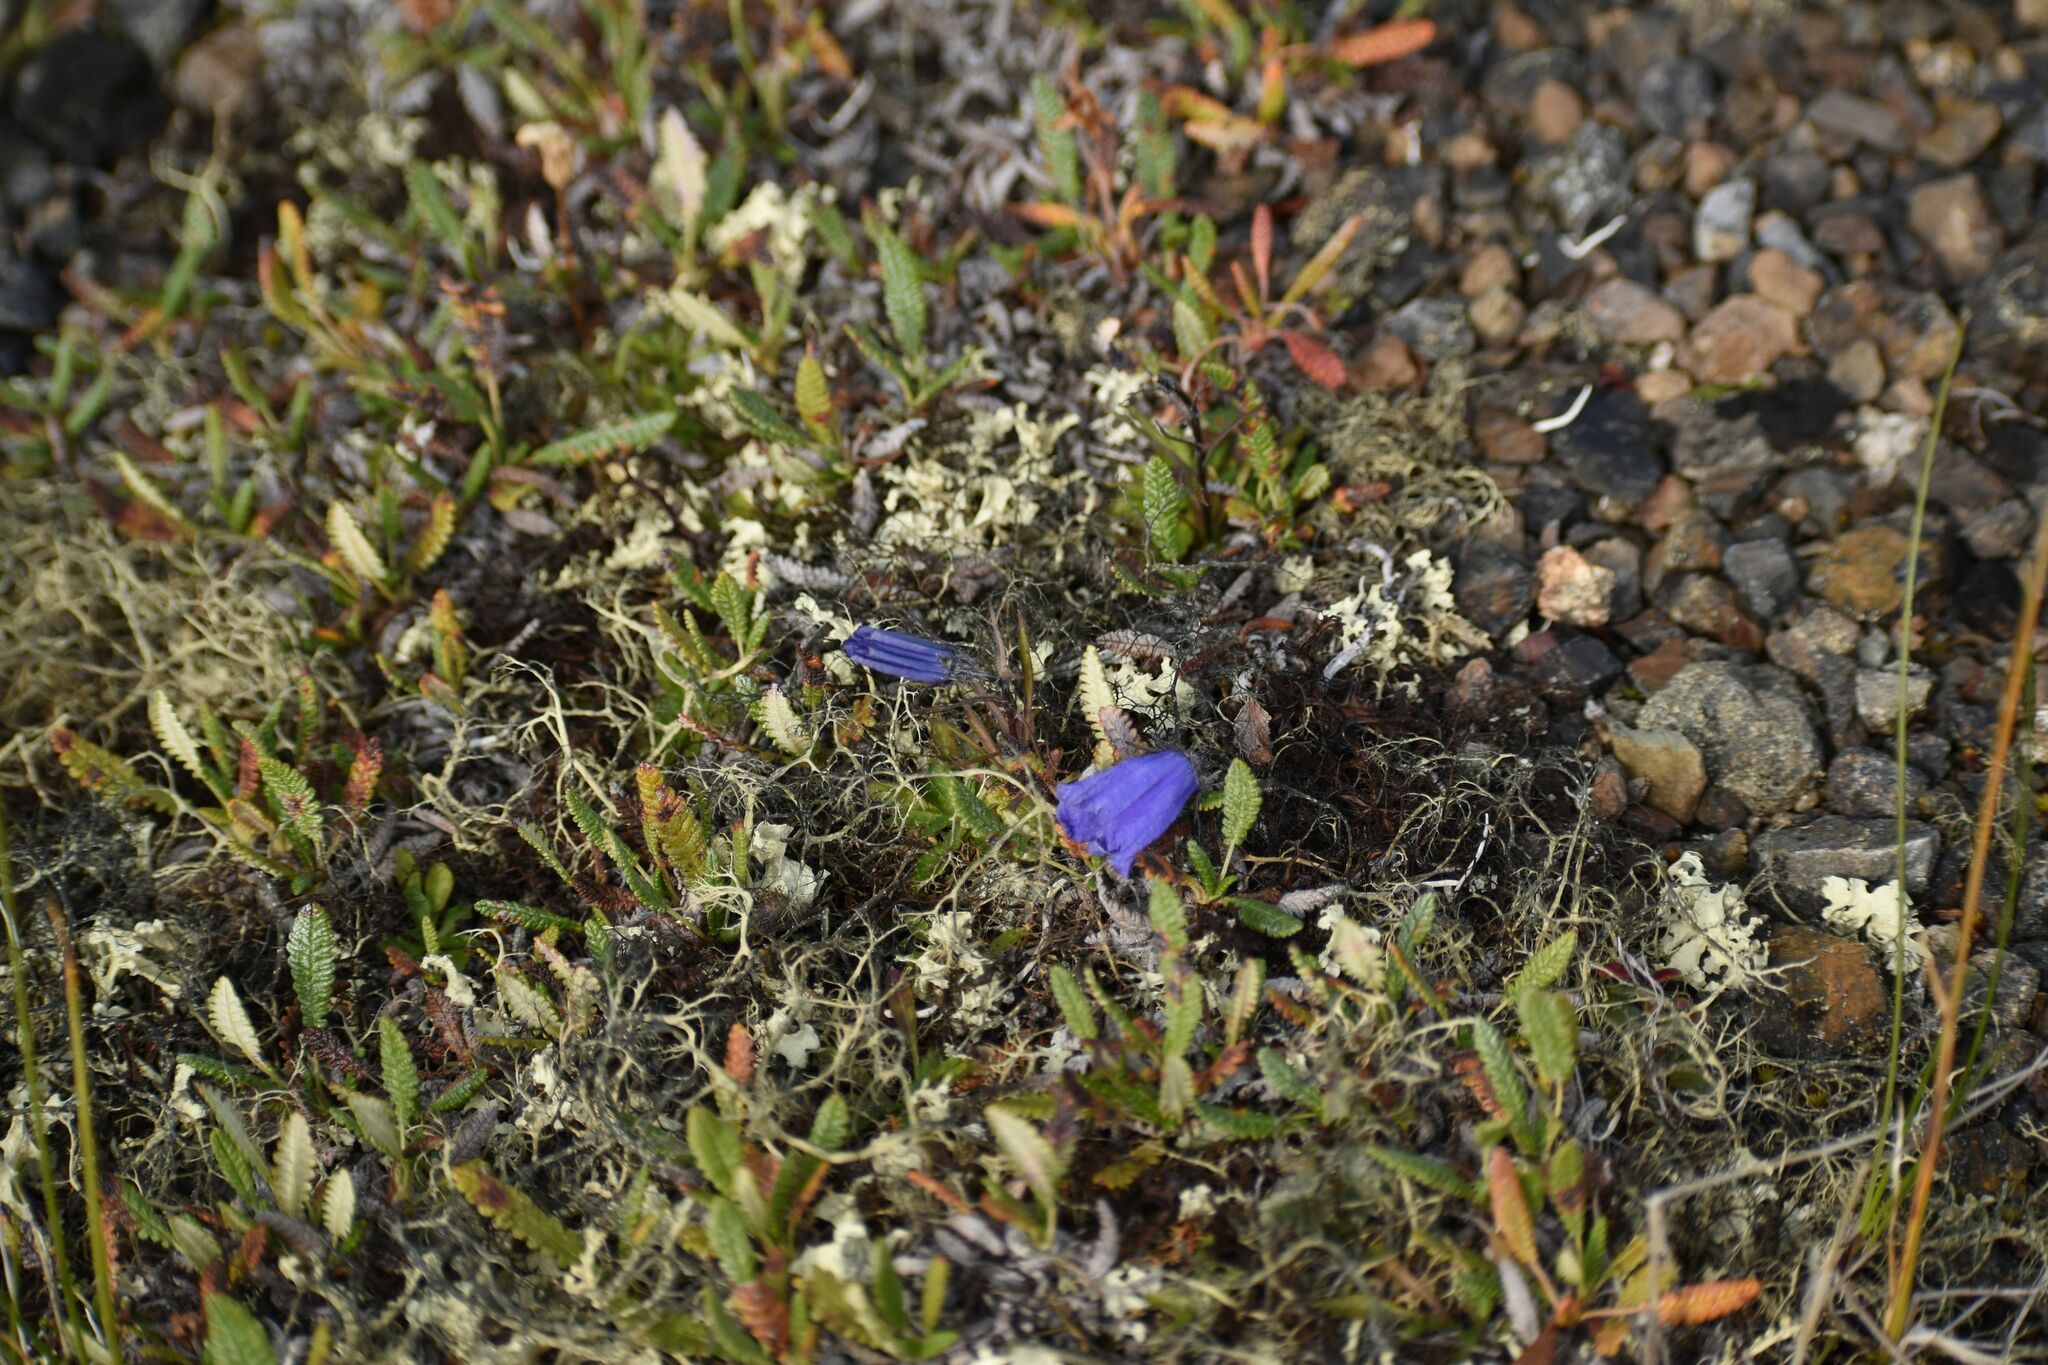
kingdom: Plantae
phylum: Tracheophyta
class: Magnoliopsida
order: Asterales
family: Campanulaceae
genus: Campanula
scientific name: Campanula lasiocarpa
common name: Mountain harebell
